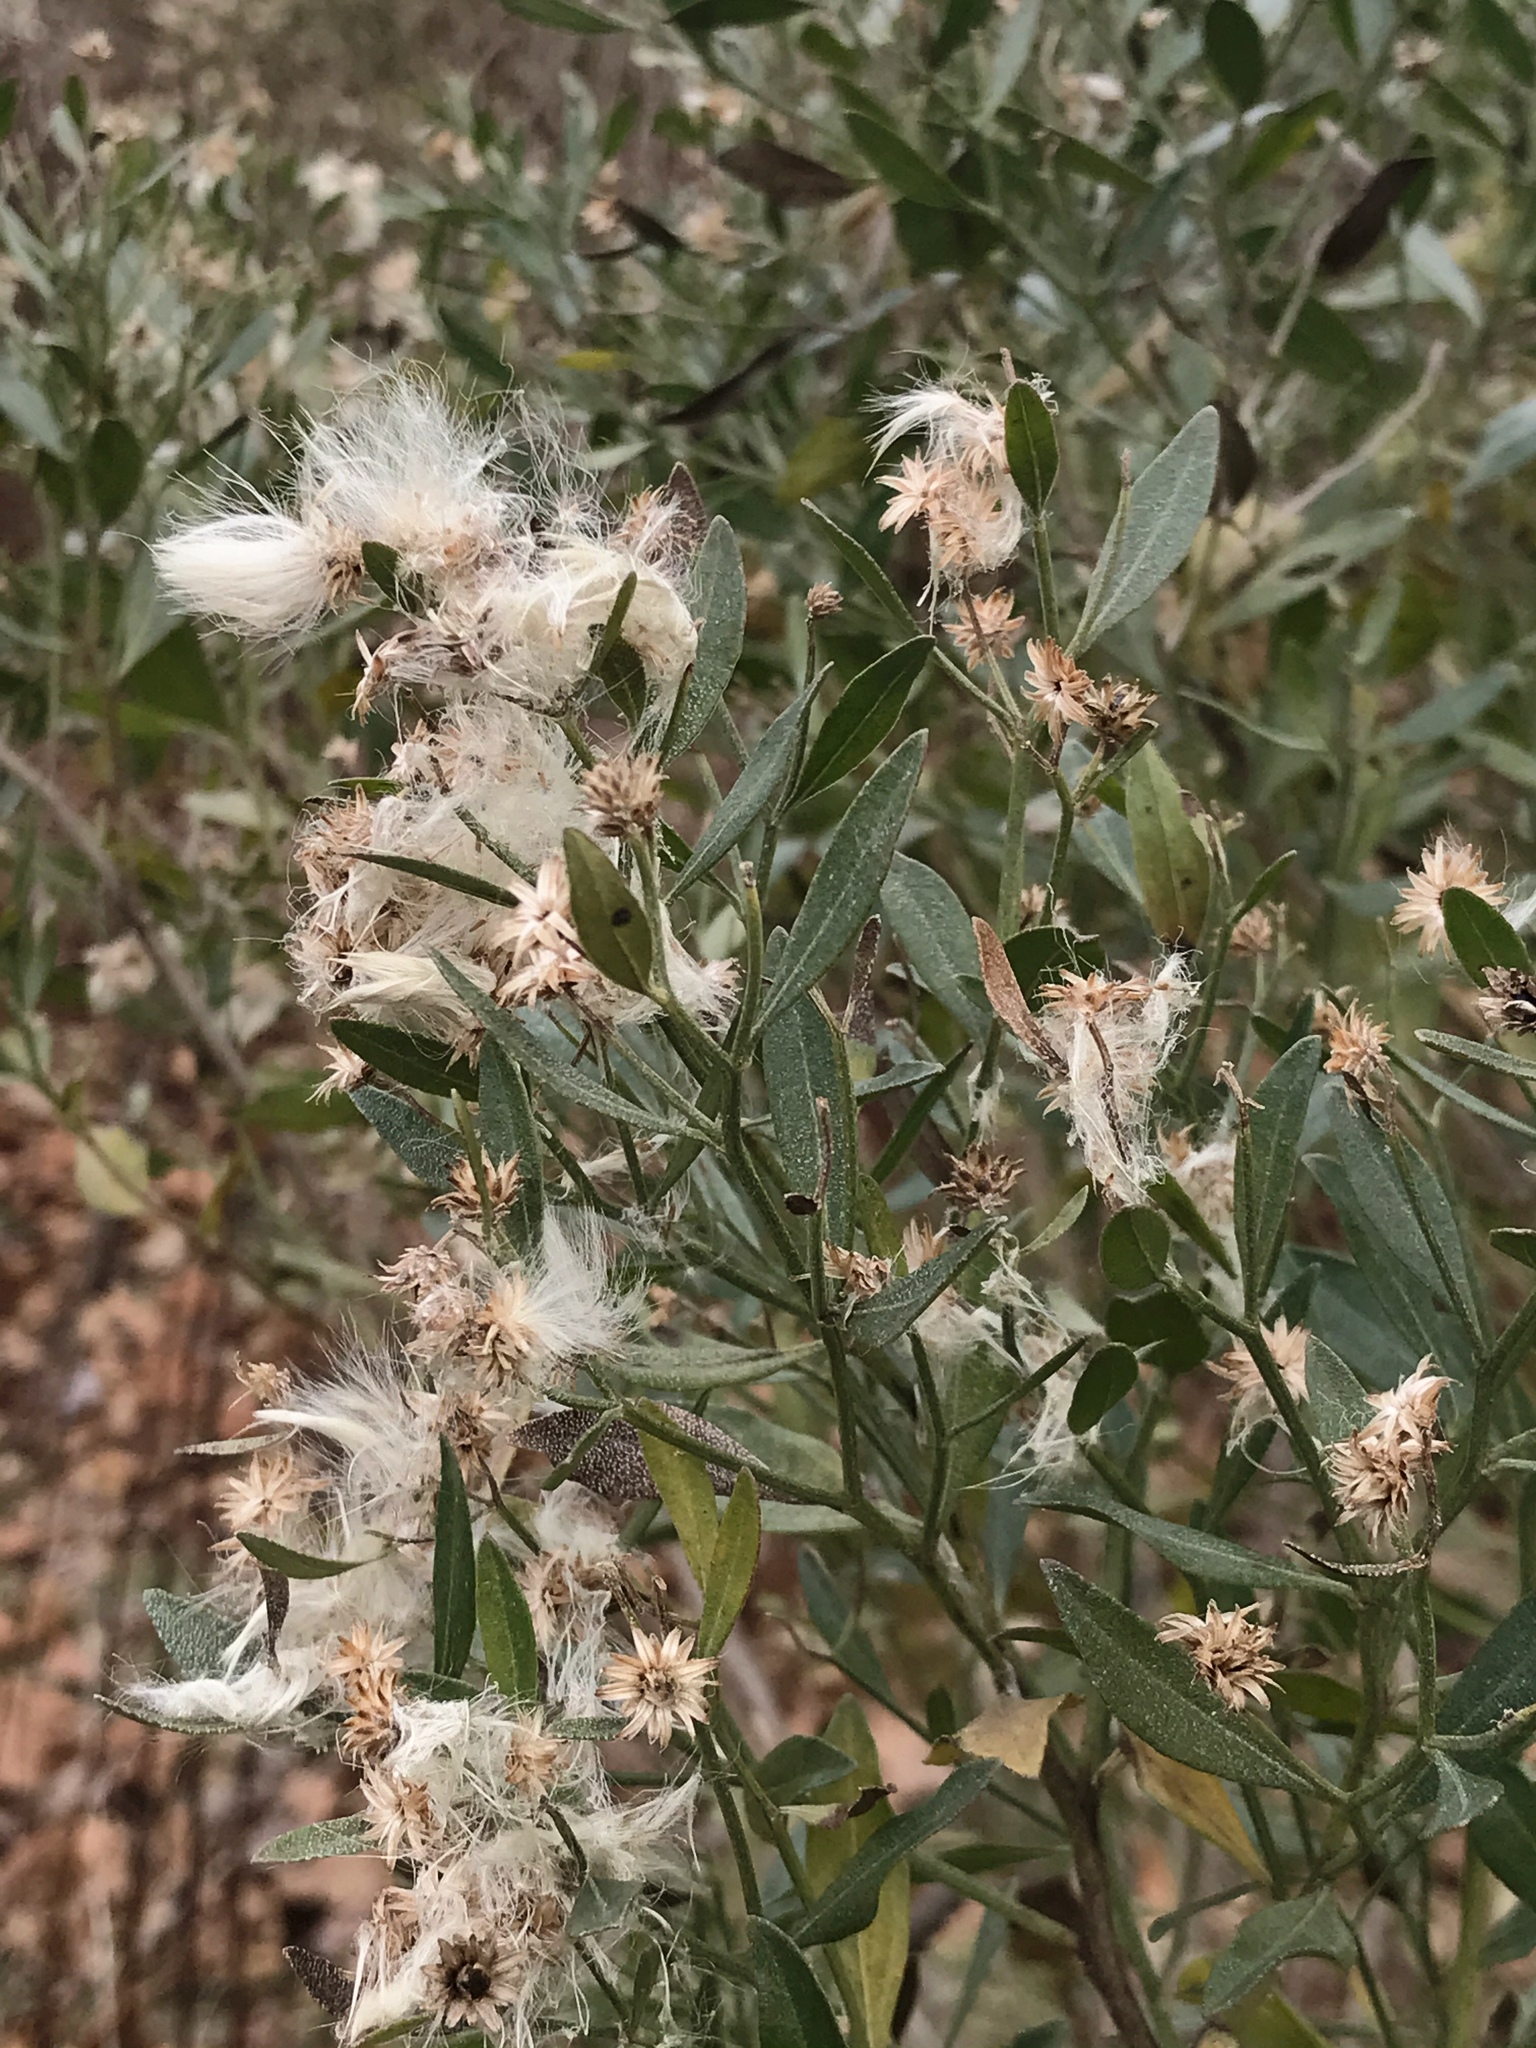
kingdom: Plantae
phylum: Tracheophyta
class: Magnoliopsida
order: Asterales
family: Asteraceae
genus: Baccharis
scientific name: Baccharis halimifolia
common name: Eastern baccharis
